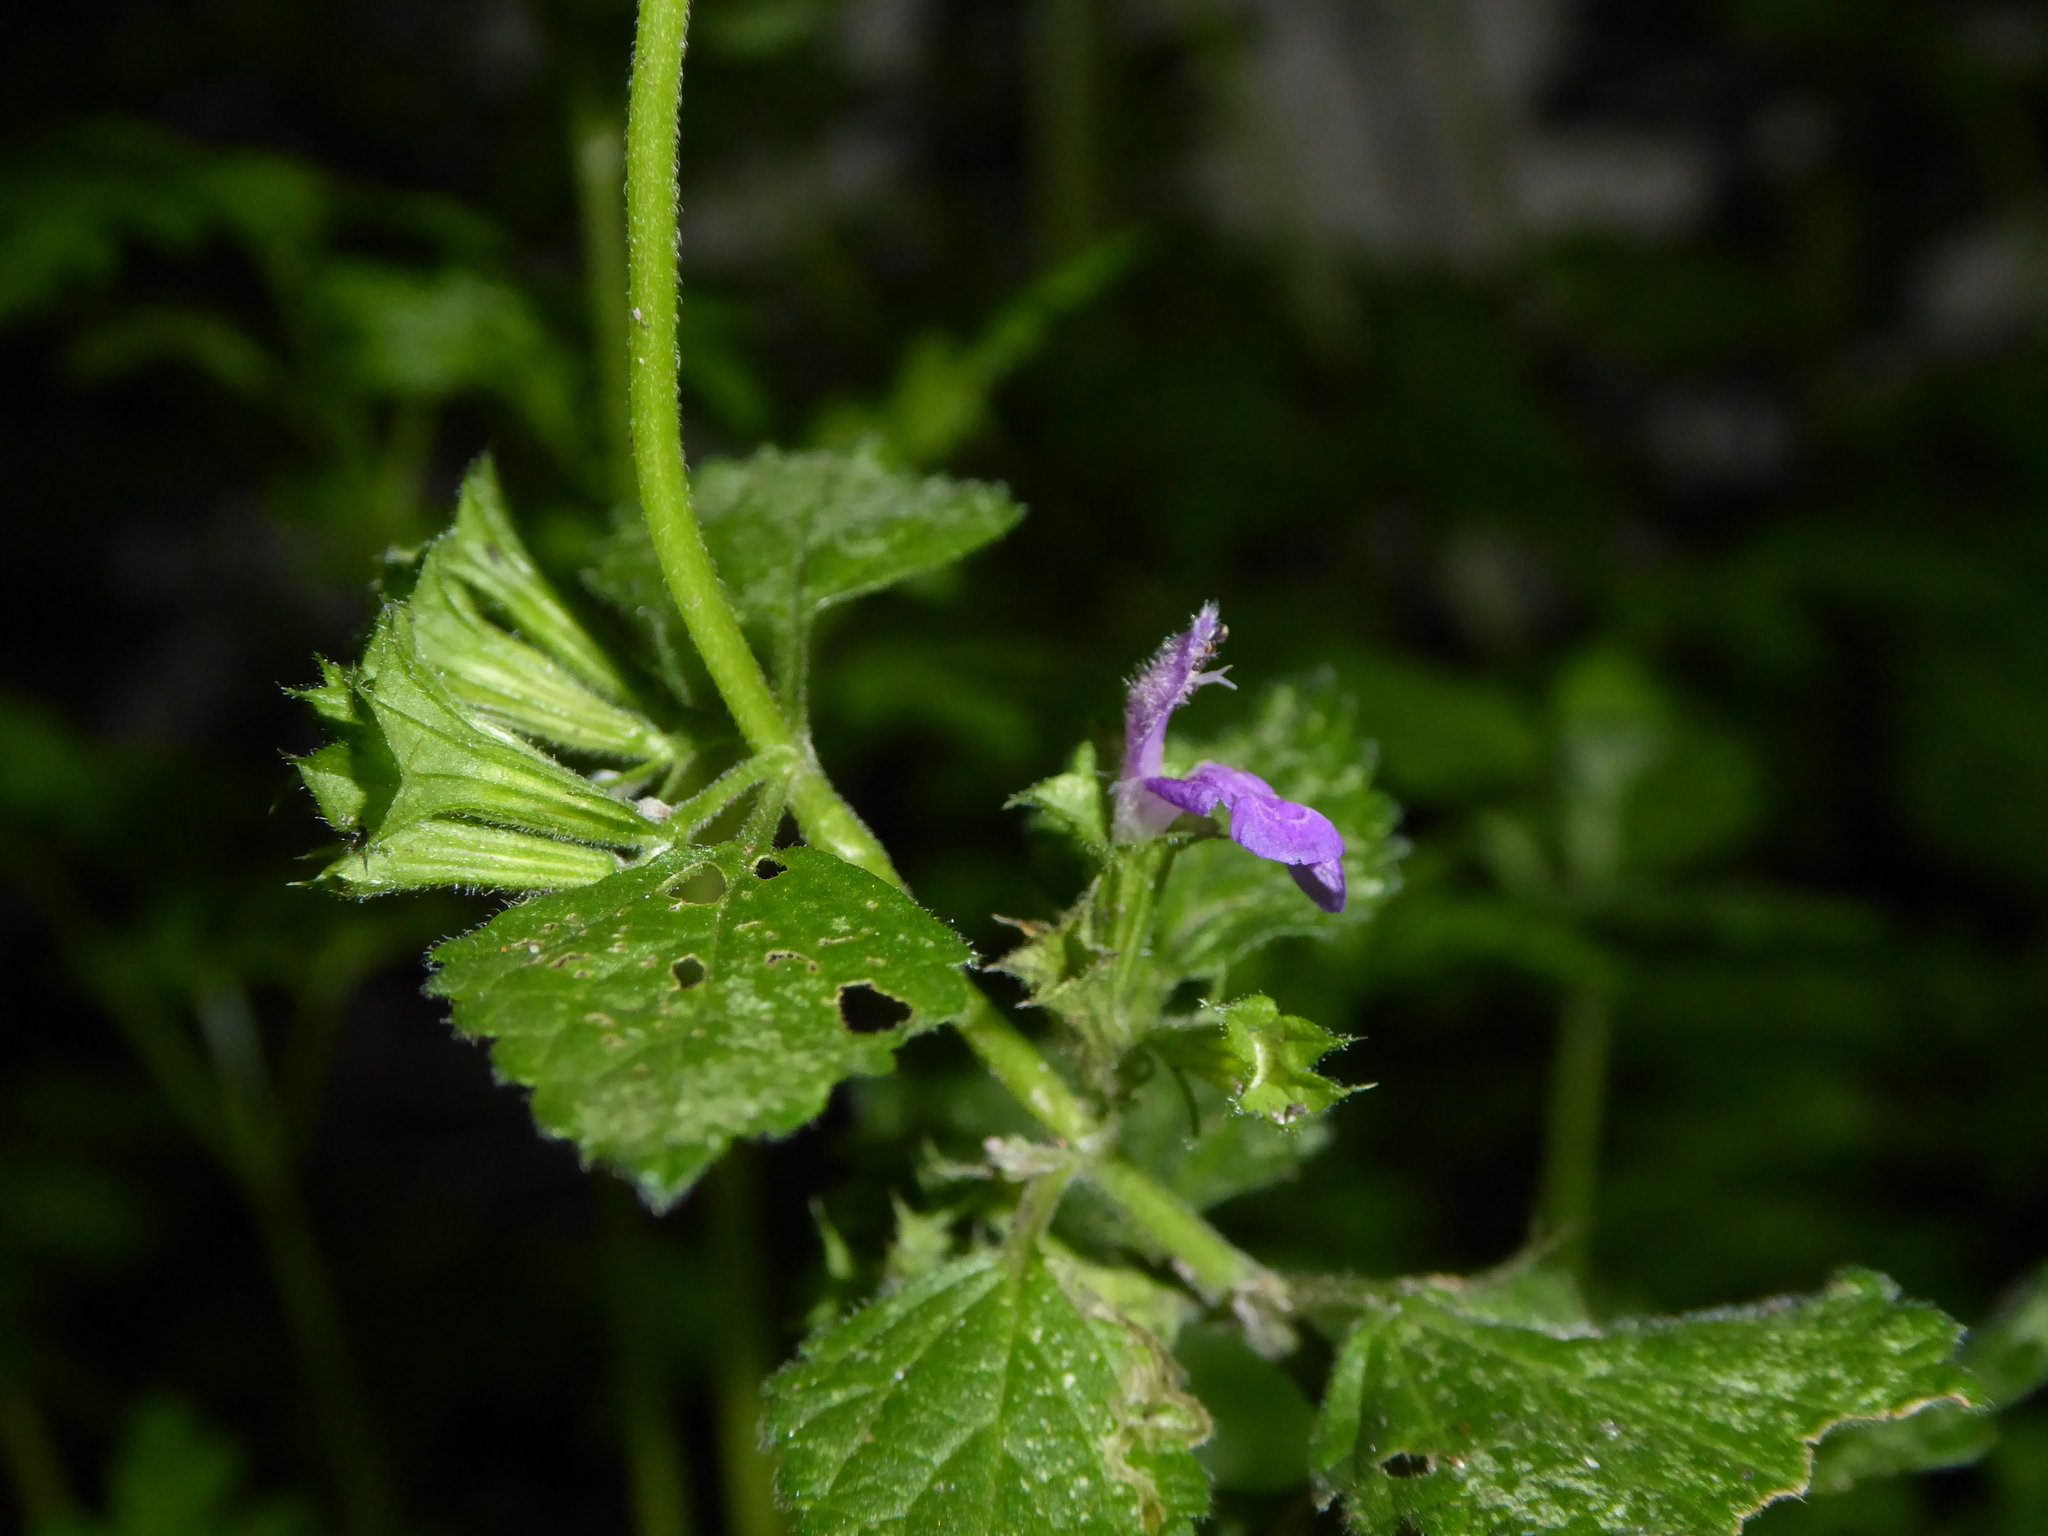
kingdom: Plantae
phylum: Tracheophyta
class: Magnoliopsida
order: Lamiales
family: Lamiaceae
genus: Ballota
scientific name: Ballota nigra
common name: Black horehound
